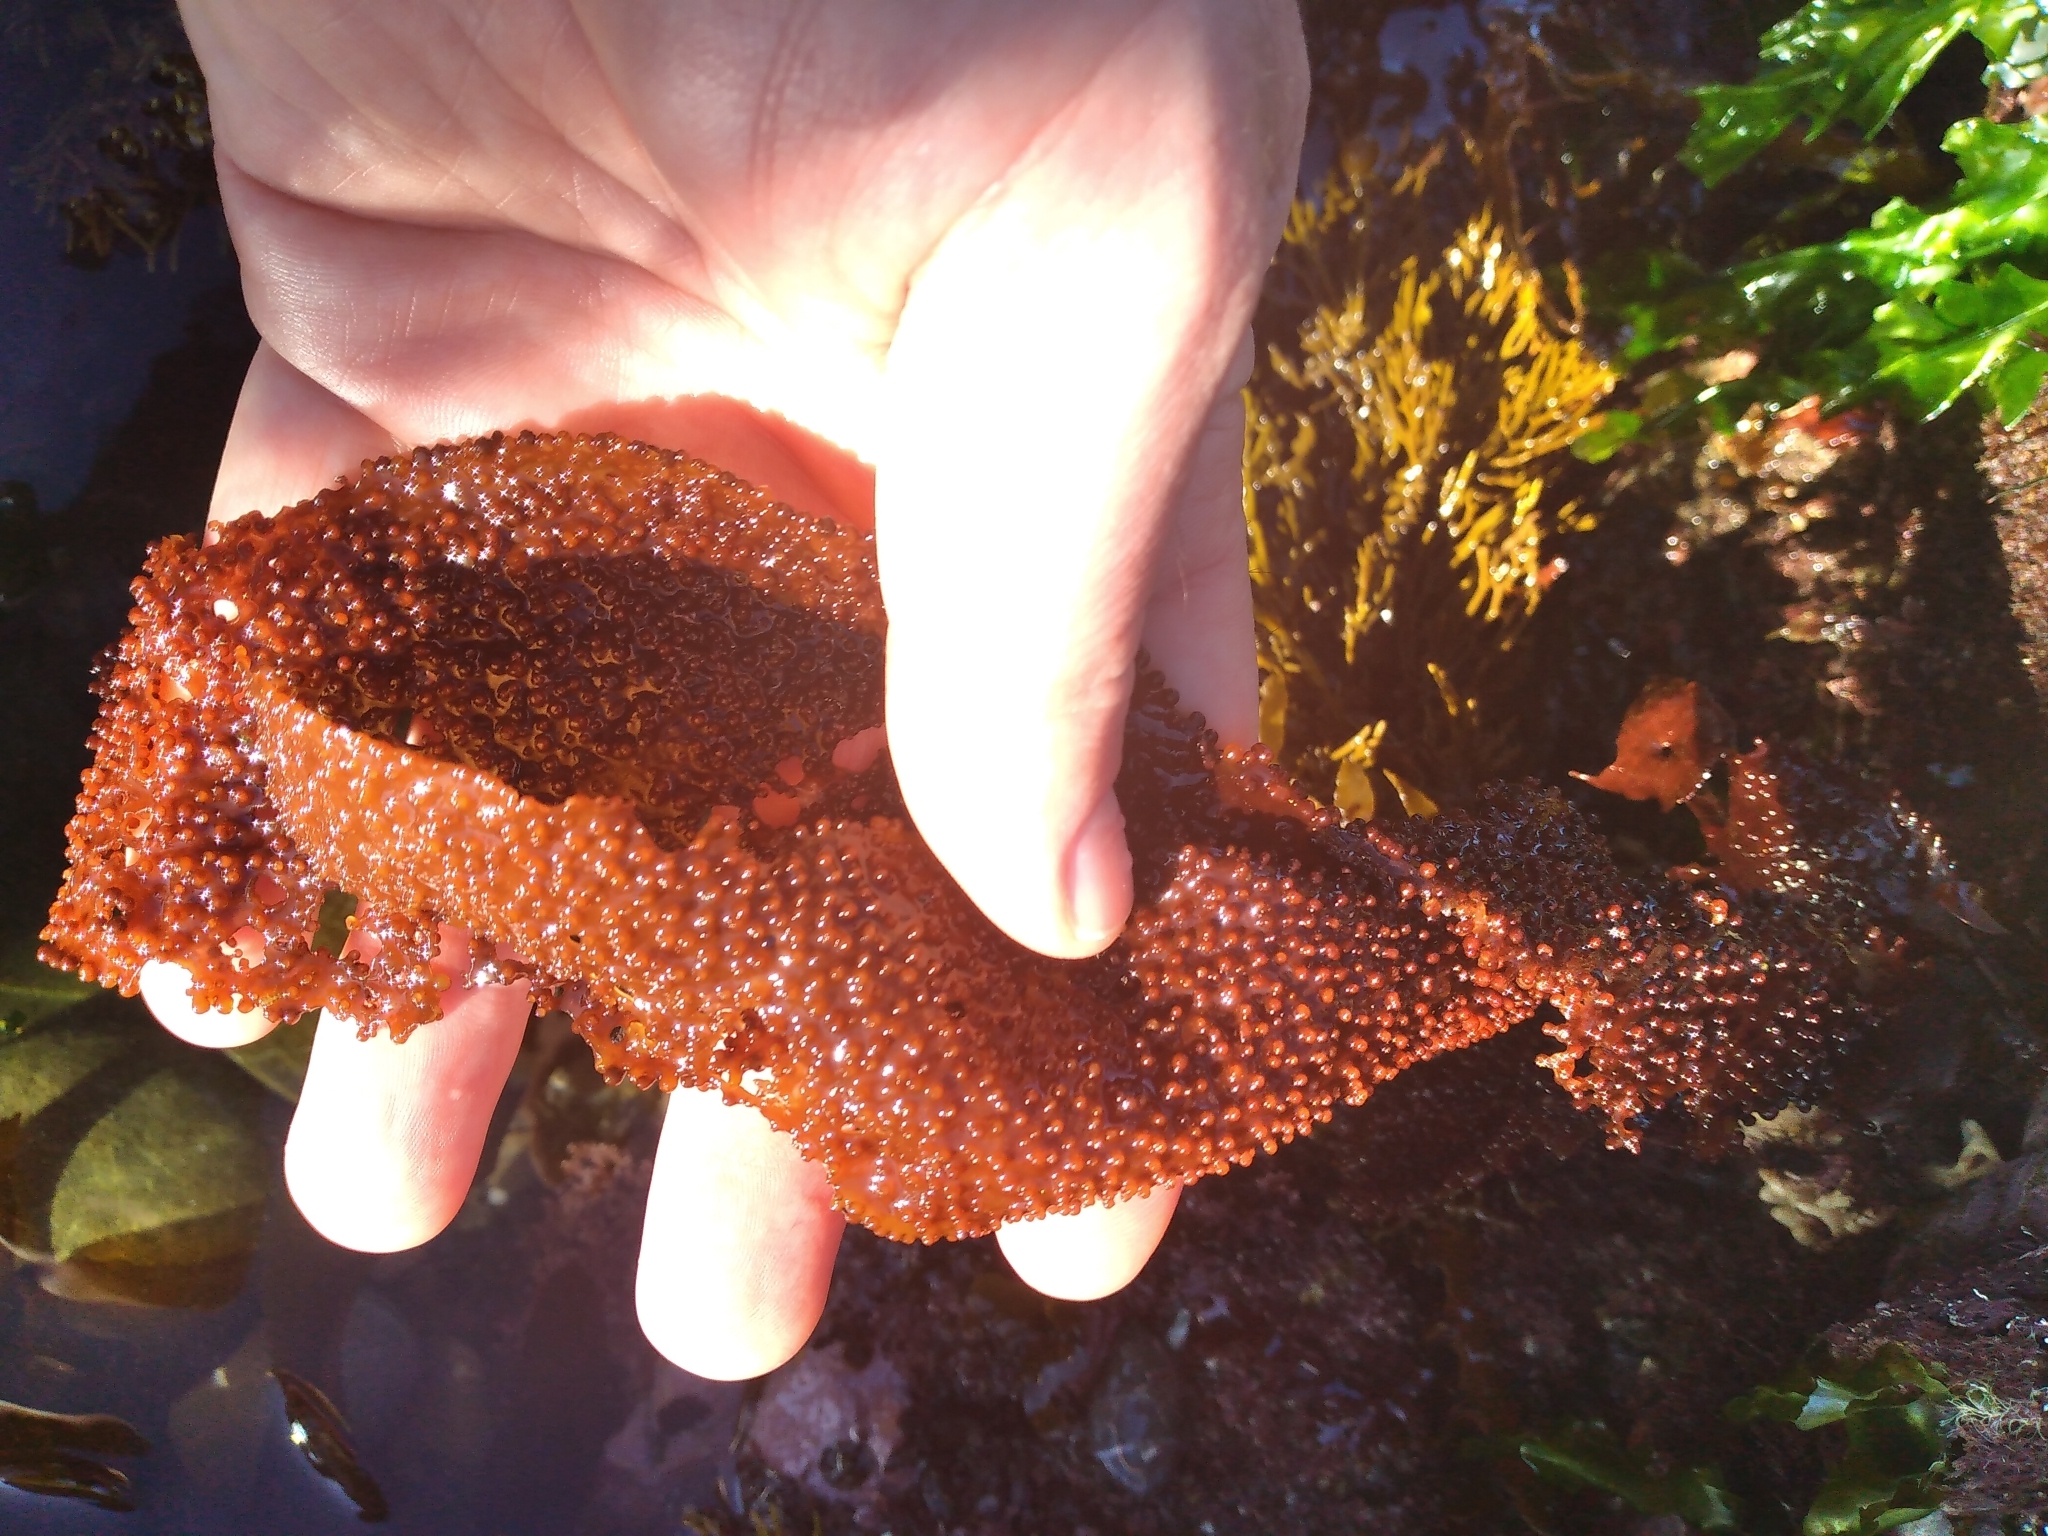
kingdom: Plantae
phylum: Rhodophyta
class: Florideophyceae
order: Gigartinales
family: Gigartinaceae
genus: Sarcothalia
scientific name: Sarcothalia
